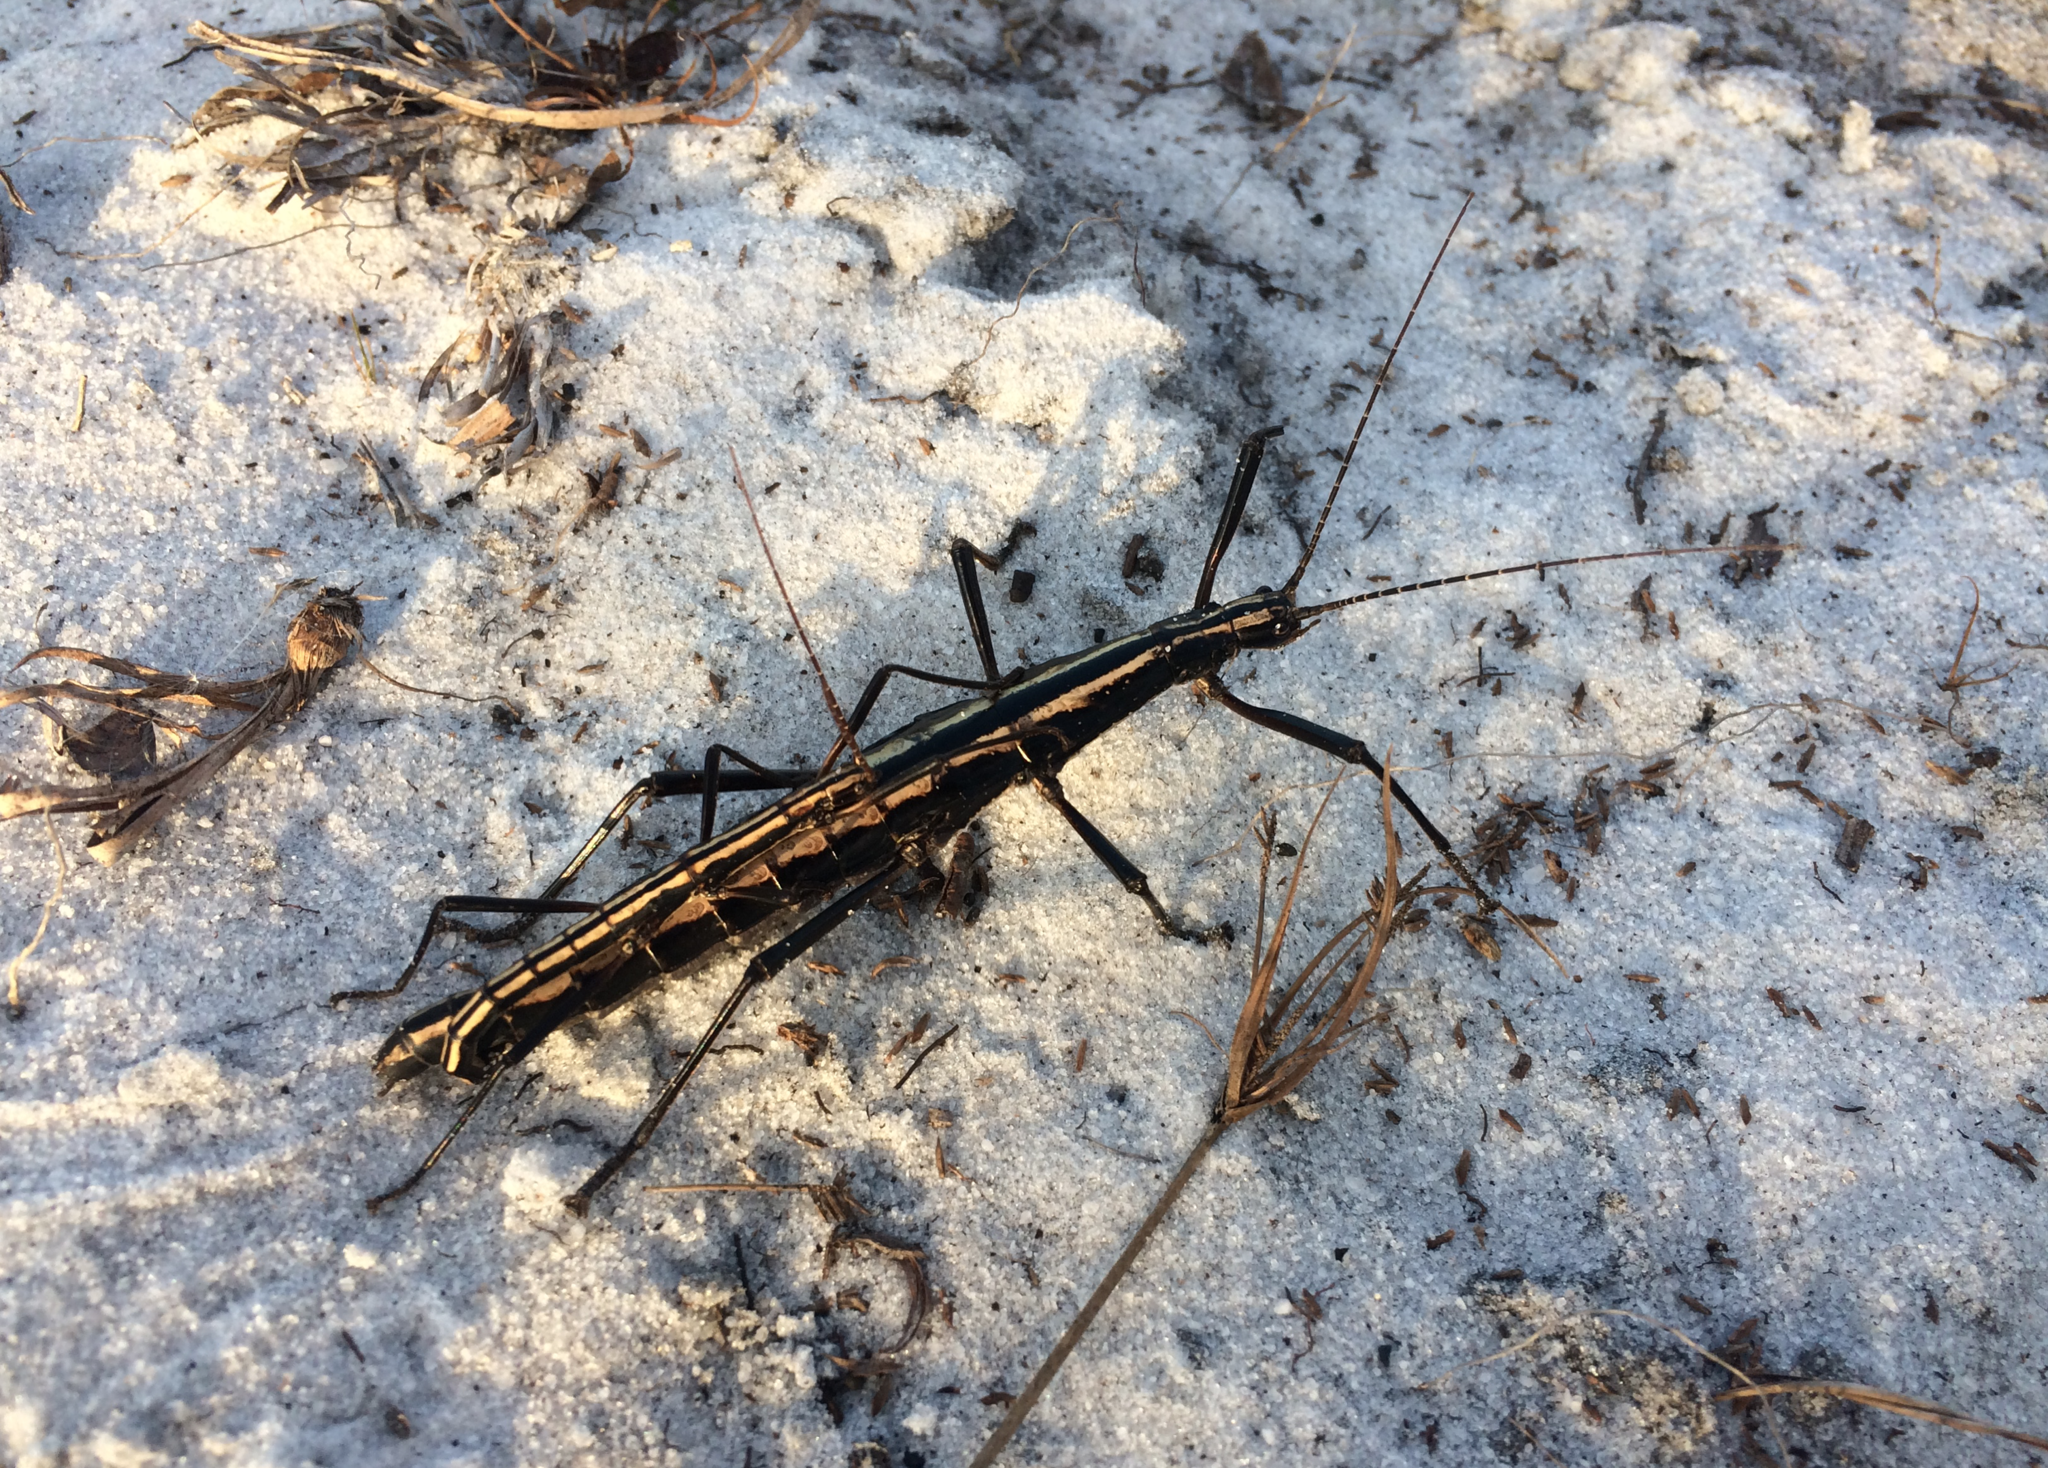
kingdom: Animalia
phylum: Arthropoda
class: Insecta
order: Phasmida
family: Pseudophasmatidae
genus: Anisomorpha
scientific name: Anisomorpha buprestoides
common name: Florida stick insect
